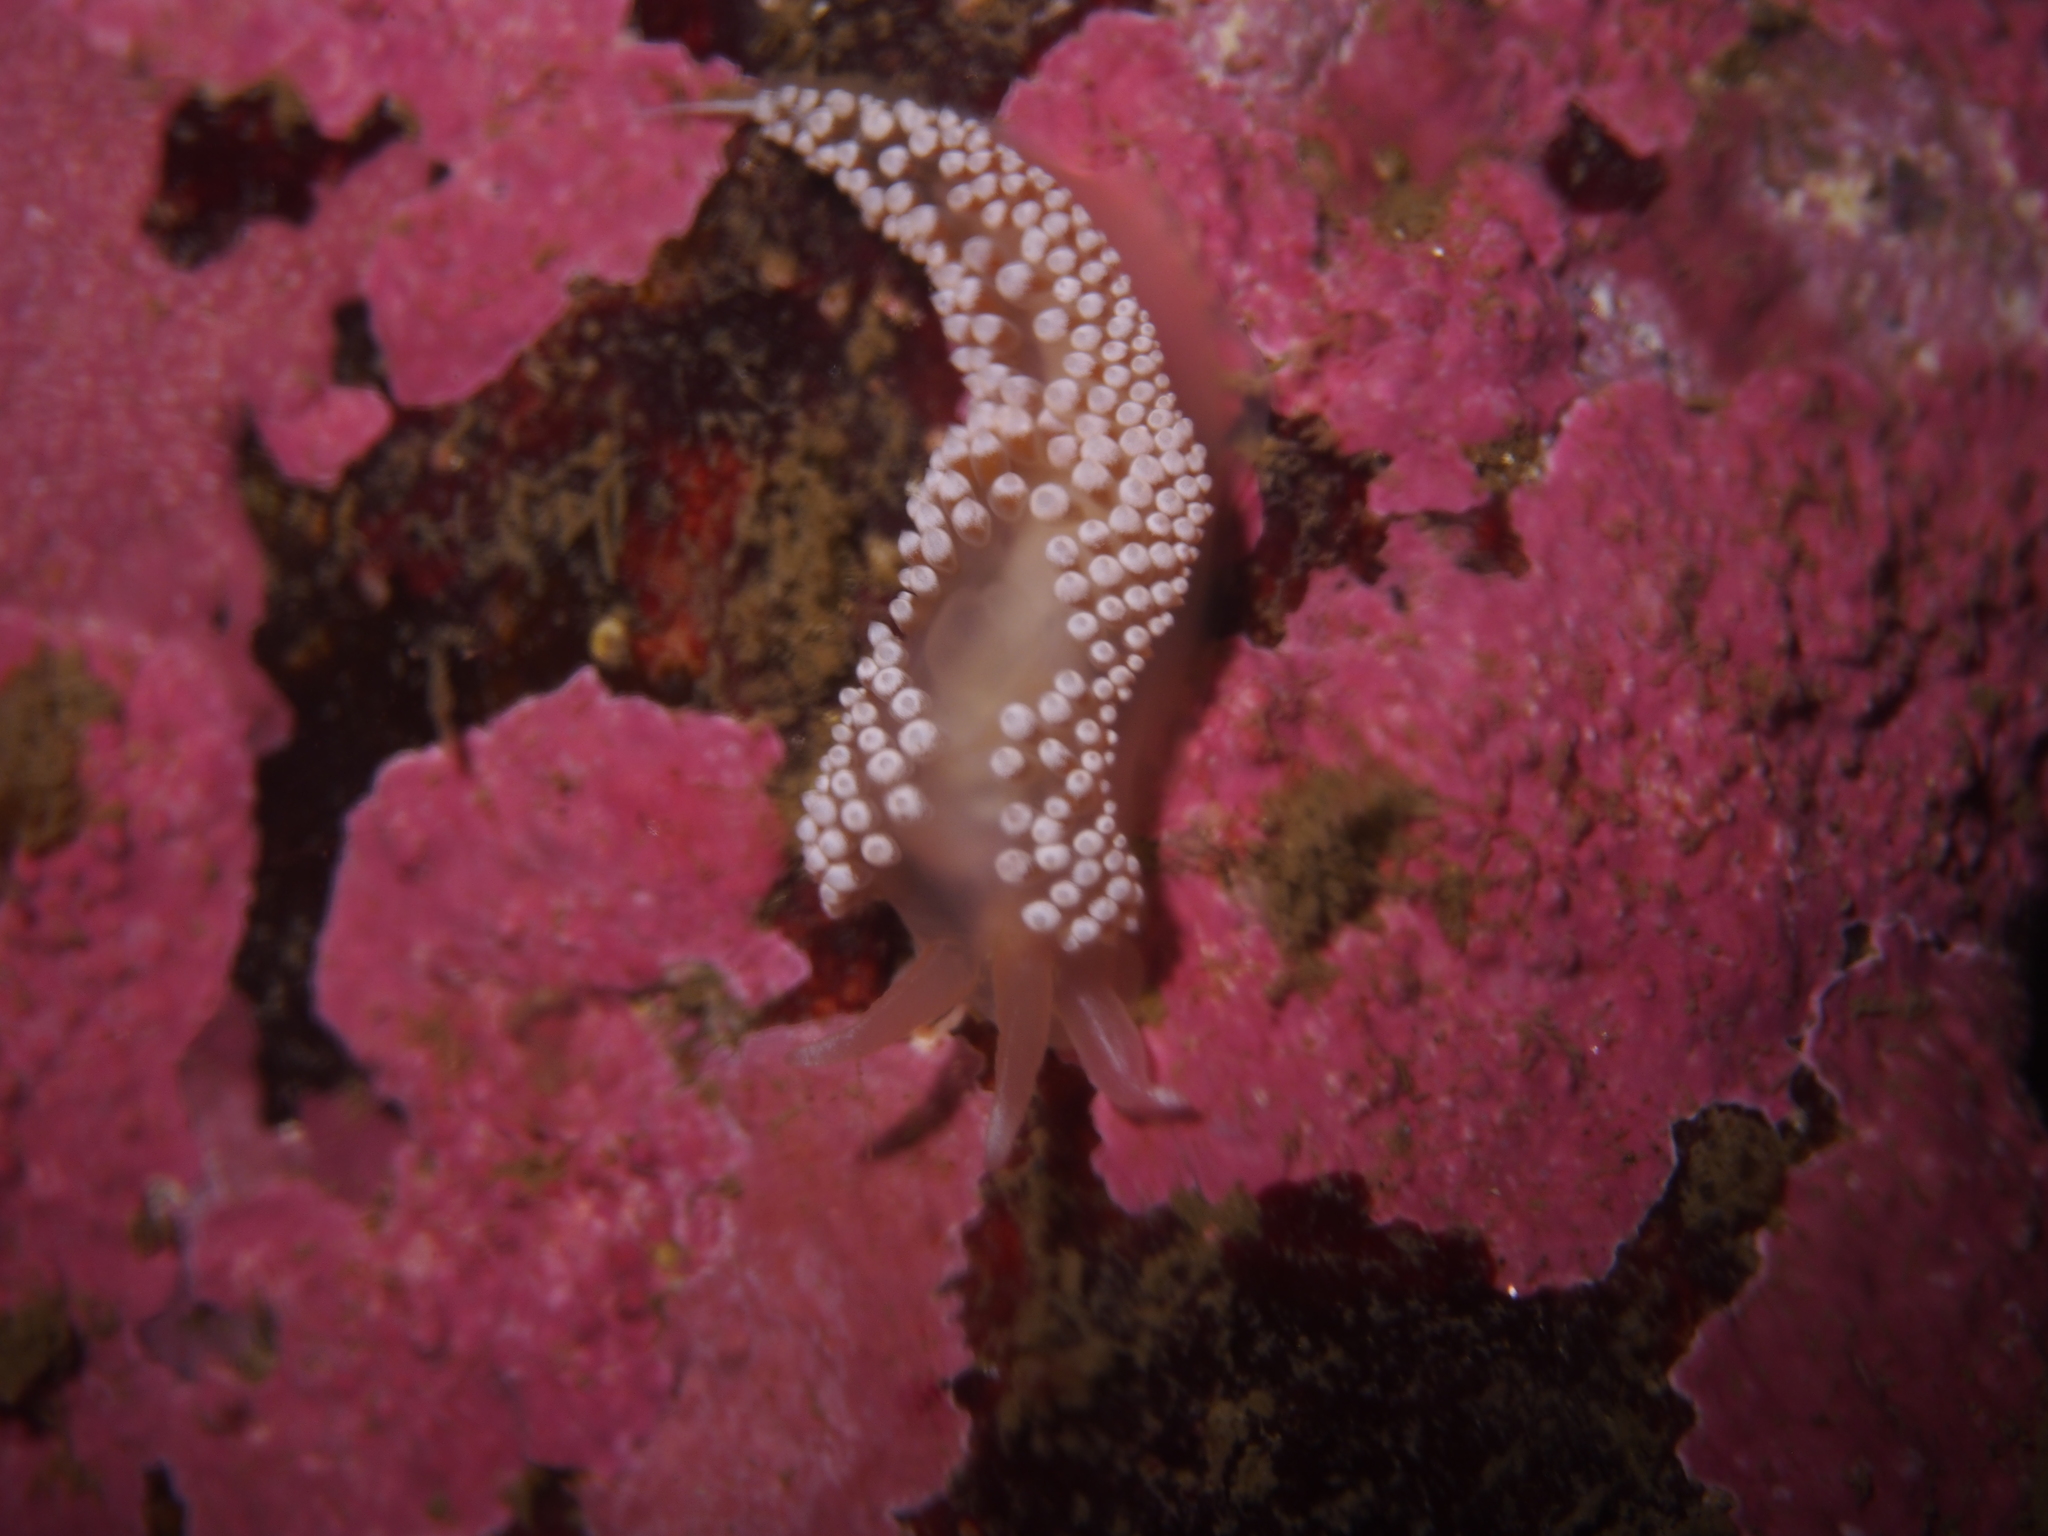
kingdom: Animalia
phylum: Mollusca
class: Gastropoda
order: Nudibranchia
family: Coryphellidae
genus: Coryphella
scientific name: Coryphella verrucosa
